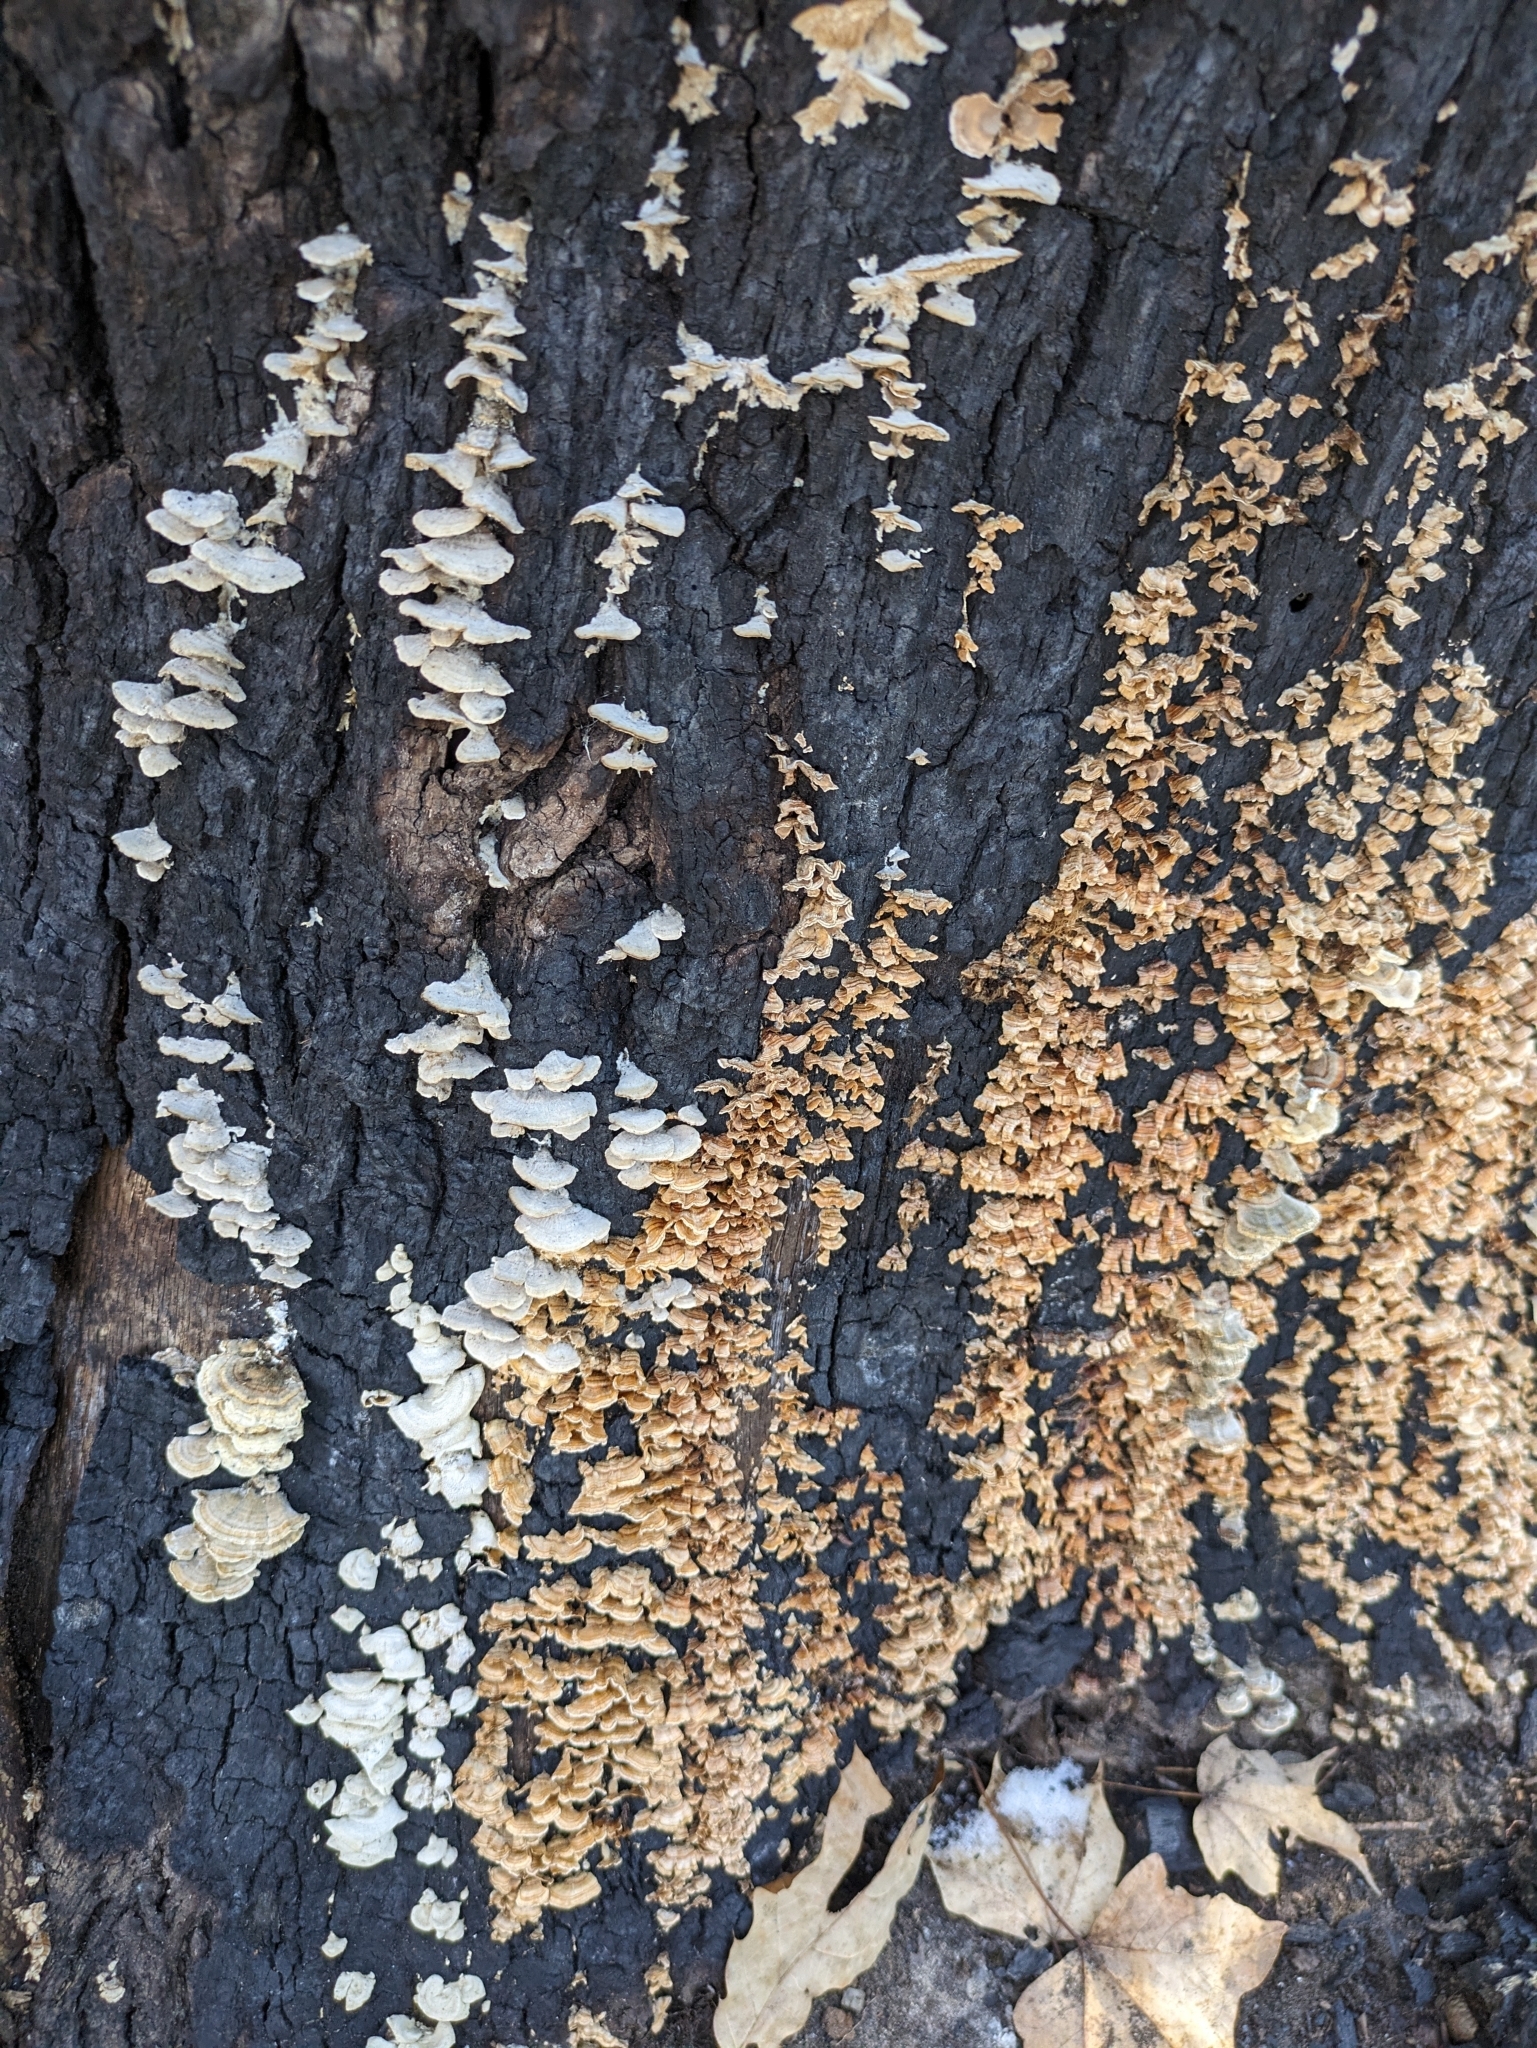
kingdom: Fungi
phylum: Basidiomycota
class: Agaricomycetes
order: Russulales
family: Stereaceae
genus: Stereum
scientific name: Stereum complicatum
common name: Crowded parchment
